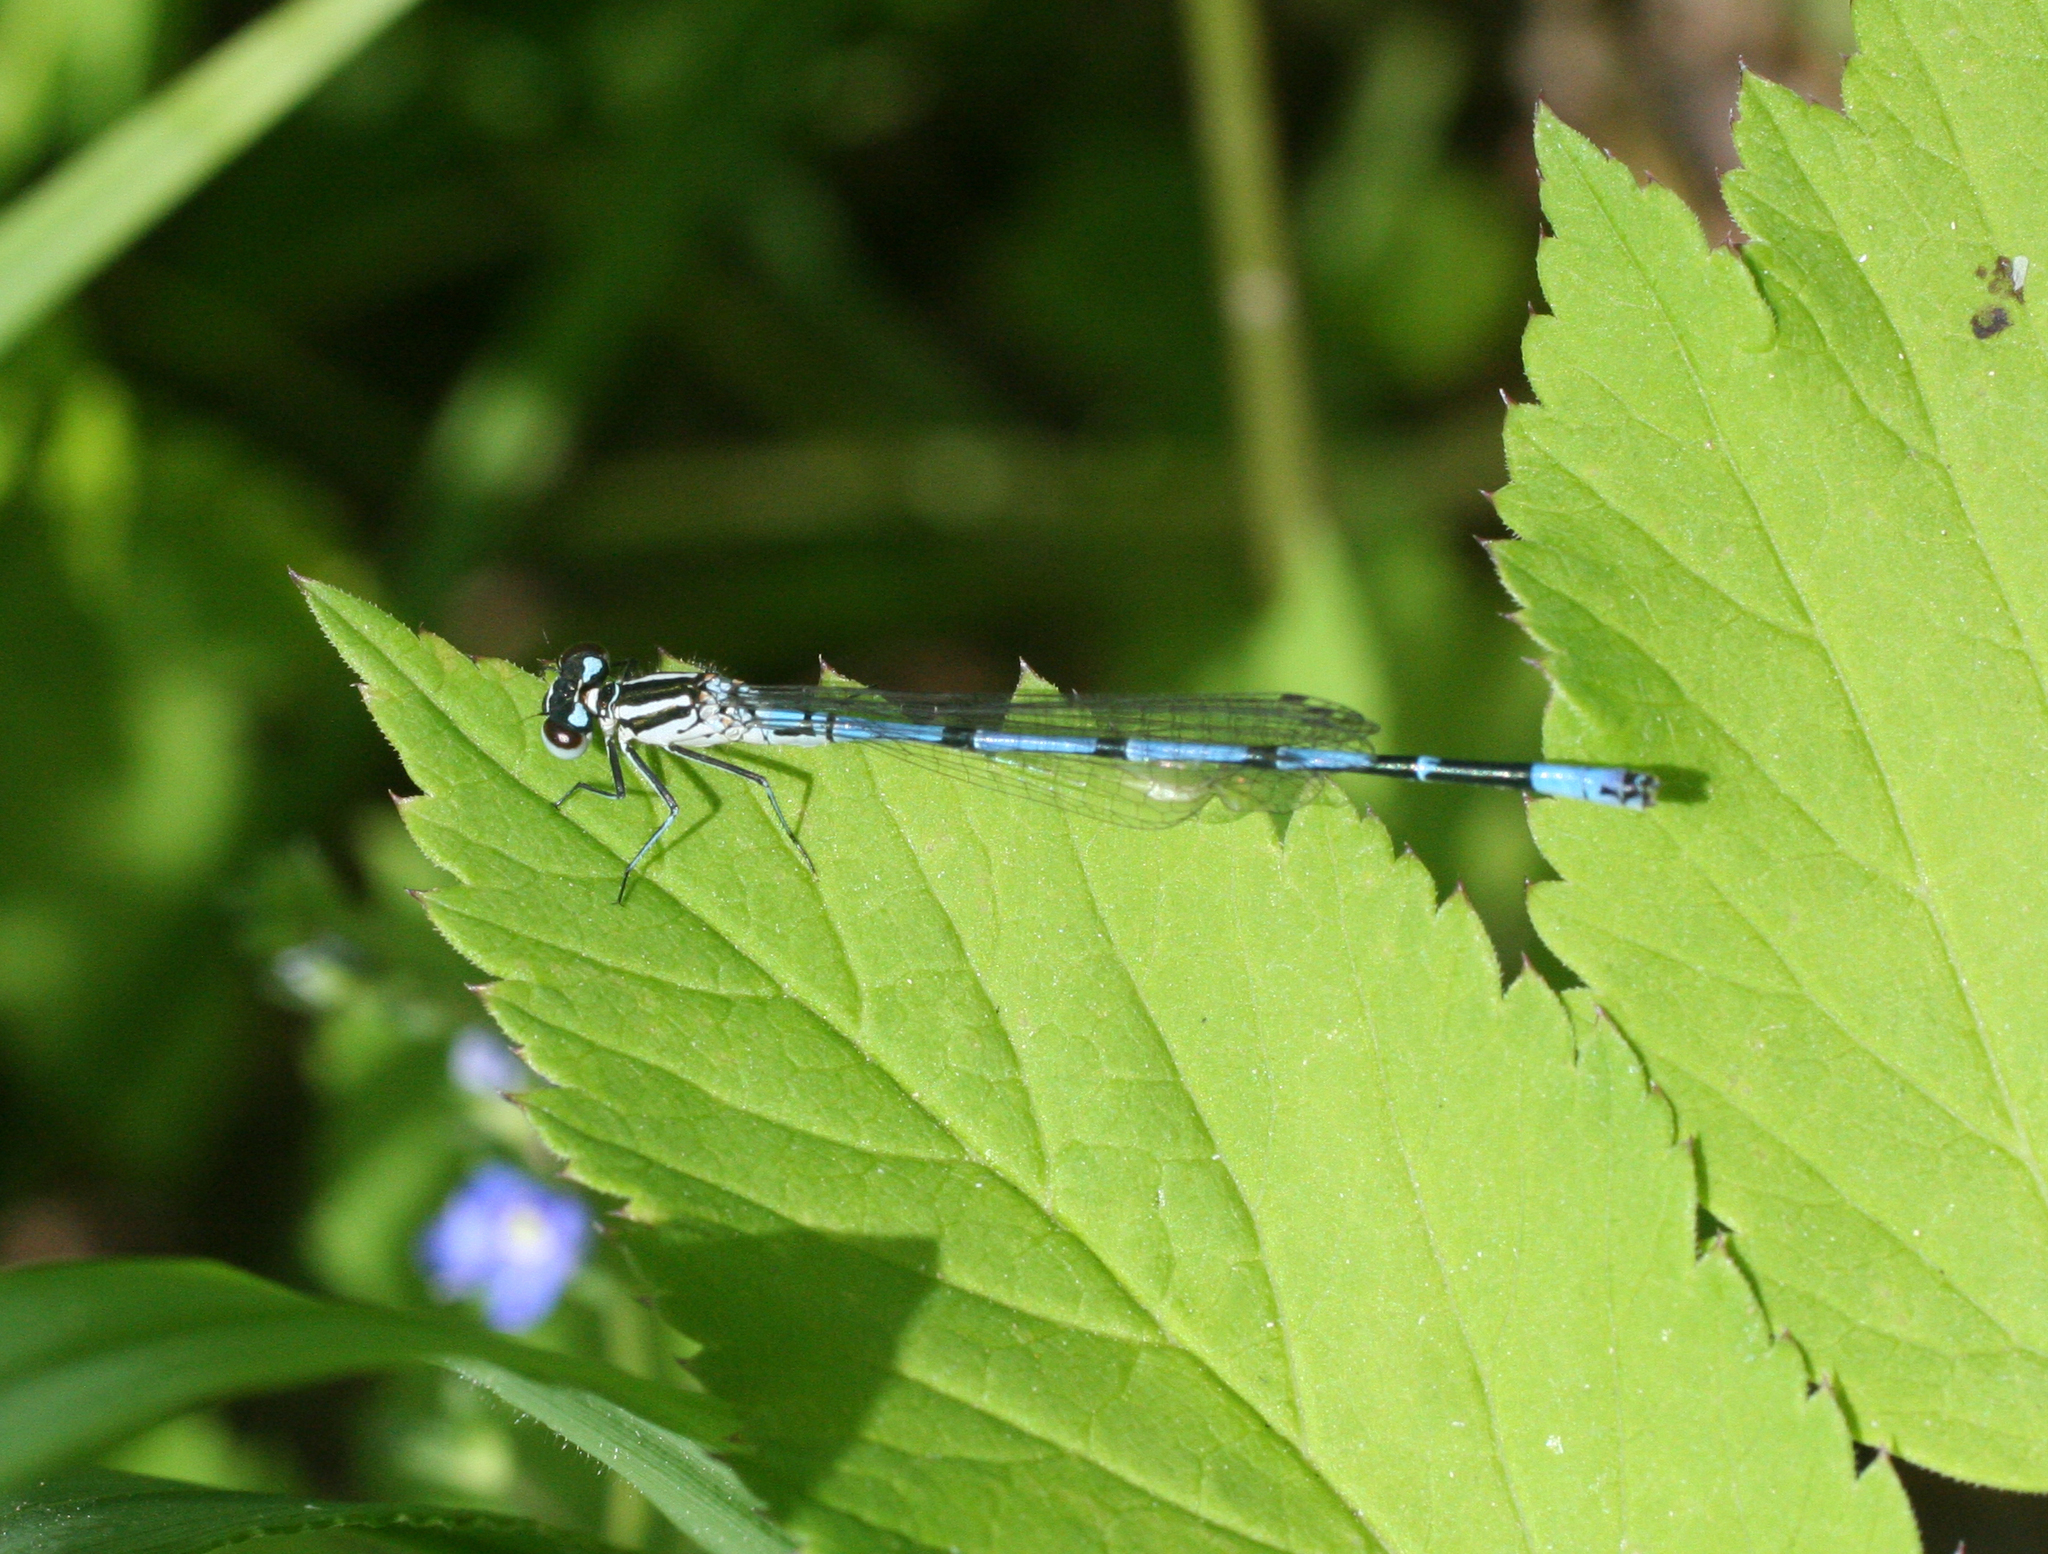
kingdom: Animalia
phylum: Arthropoda
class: Insecta
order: Odonata
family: Coenagrionidae
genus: Coenagrion
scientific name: Coenagrion puella
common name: Azure damselfly
